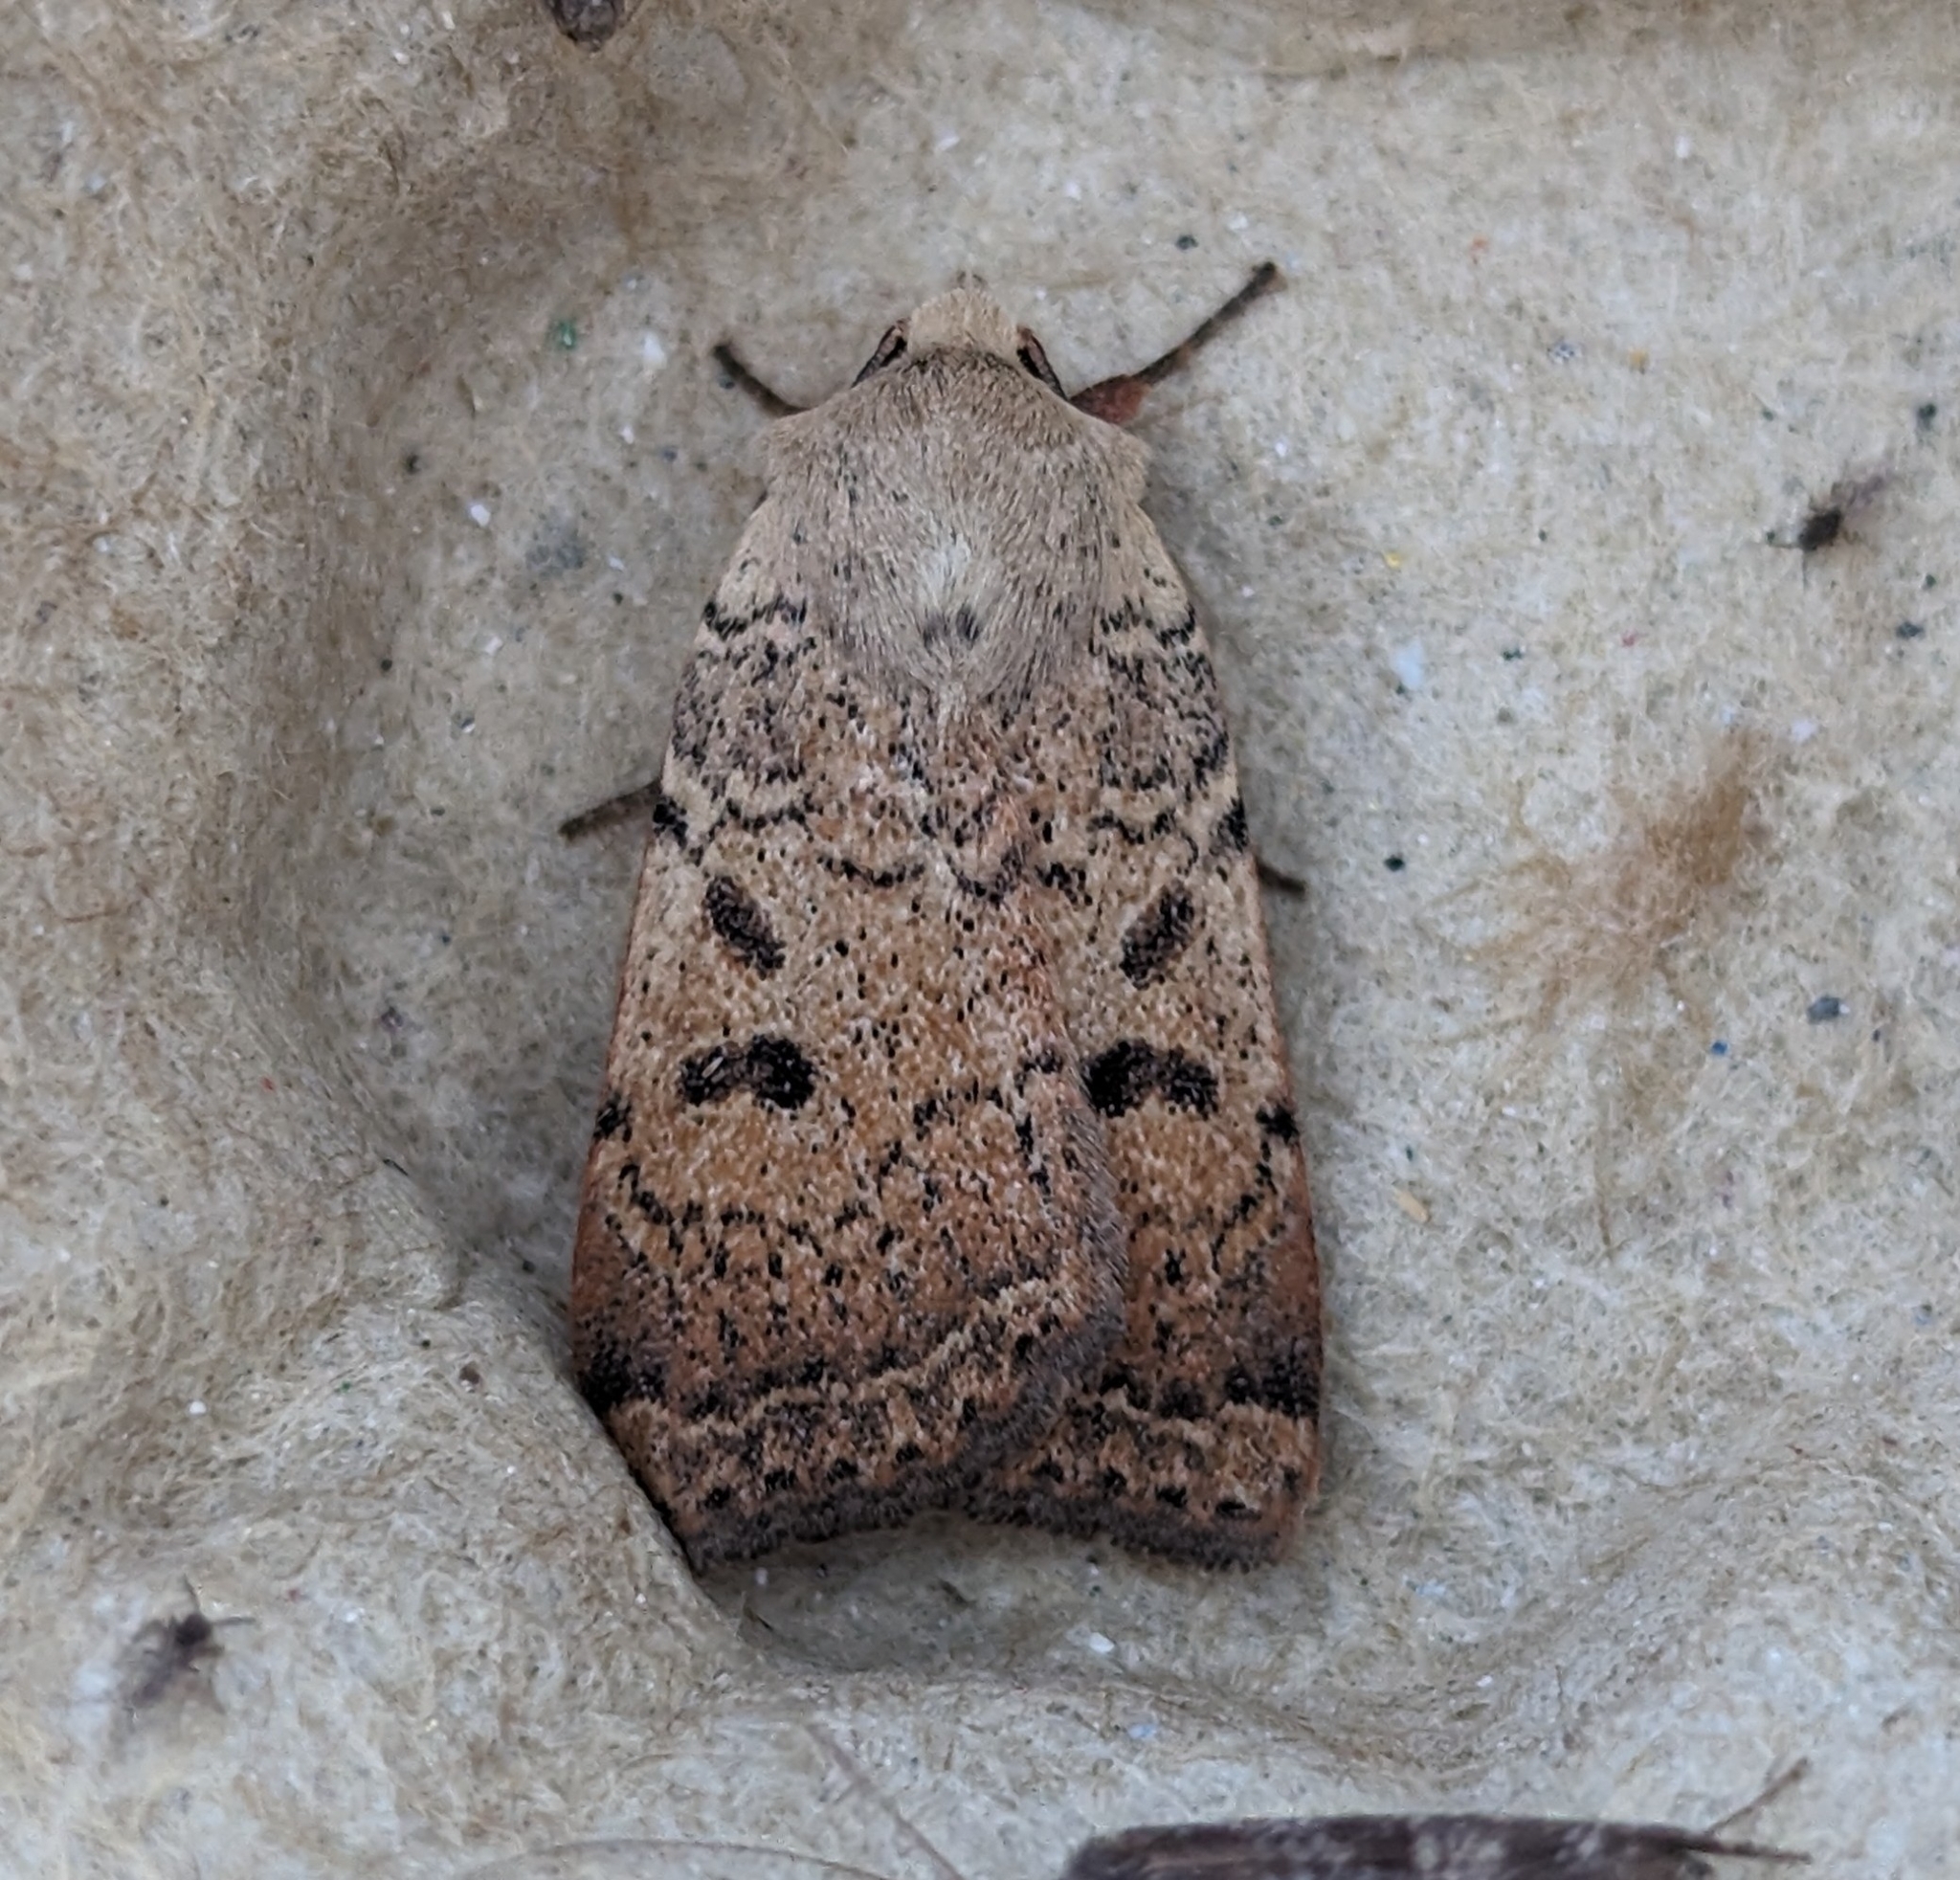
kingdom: Animalia
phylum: Arthropoda
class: Insecta
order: Lepidoptera
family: Noctuidae
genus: Abagrotis
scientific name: Abagrotis trigona
